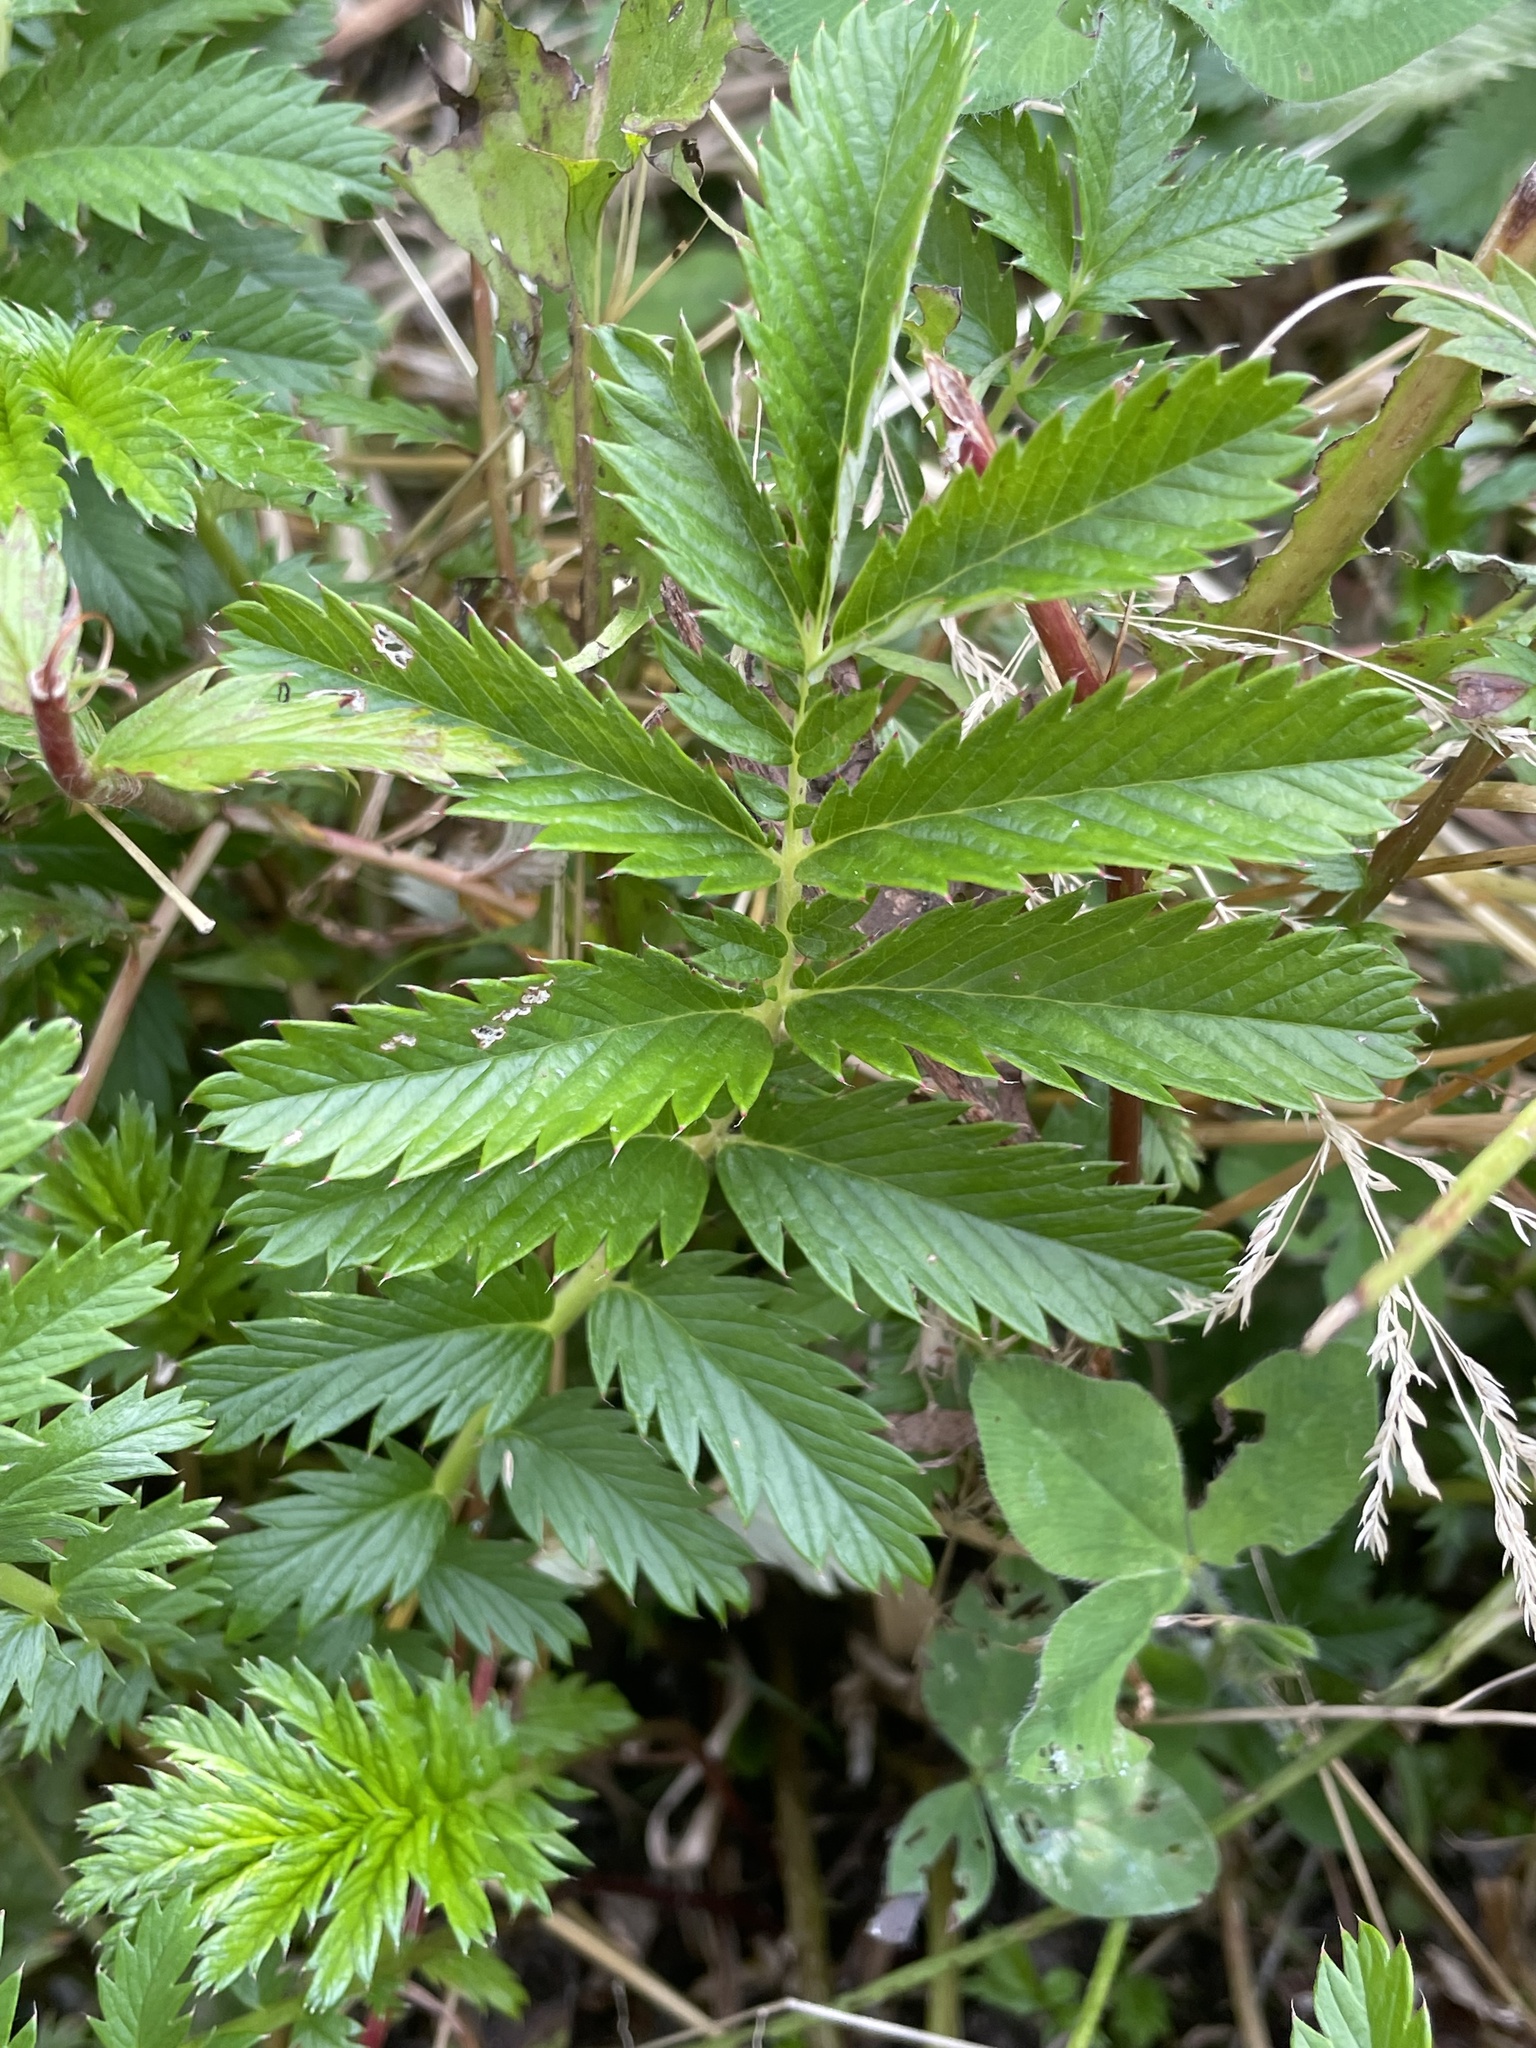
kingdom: Plantae
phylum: Tracheophyta
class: Magnoliopsida
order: Rosales
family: Rosaceae
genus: Argentina
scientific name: Argentina anserina
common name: Common silverweed
